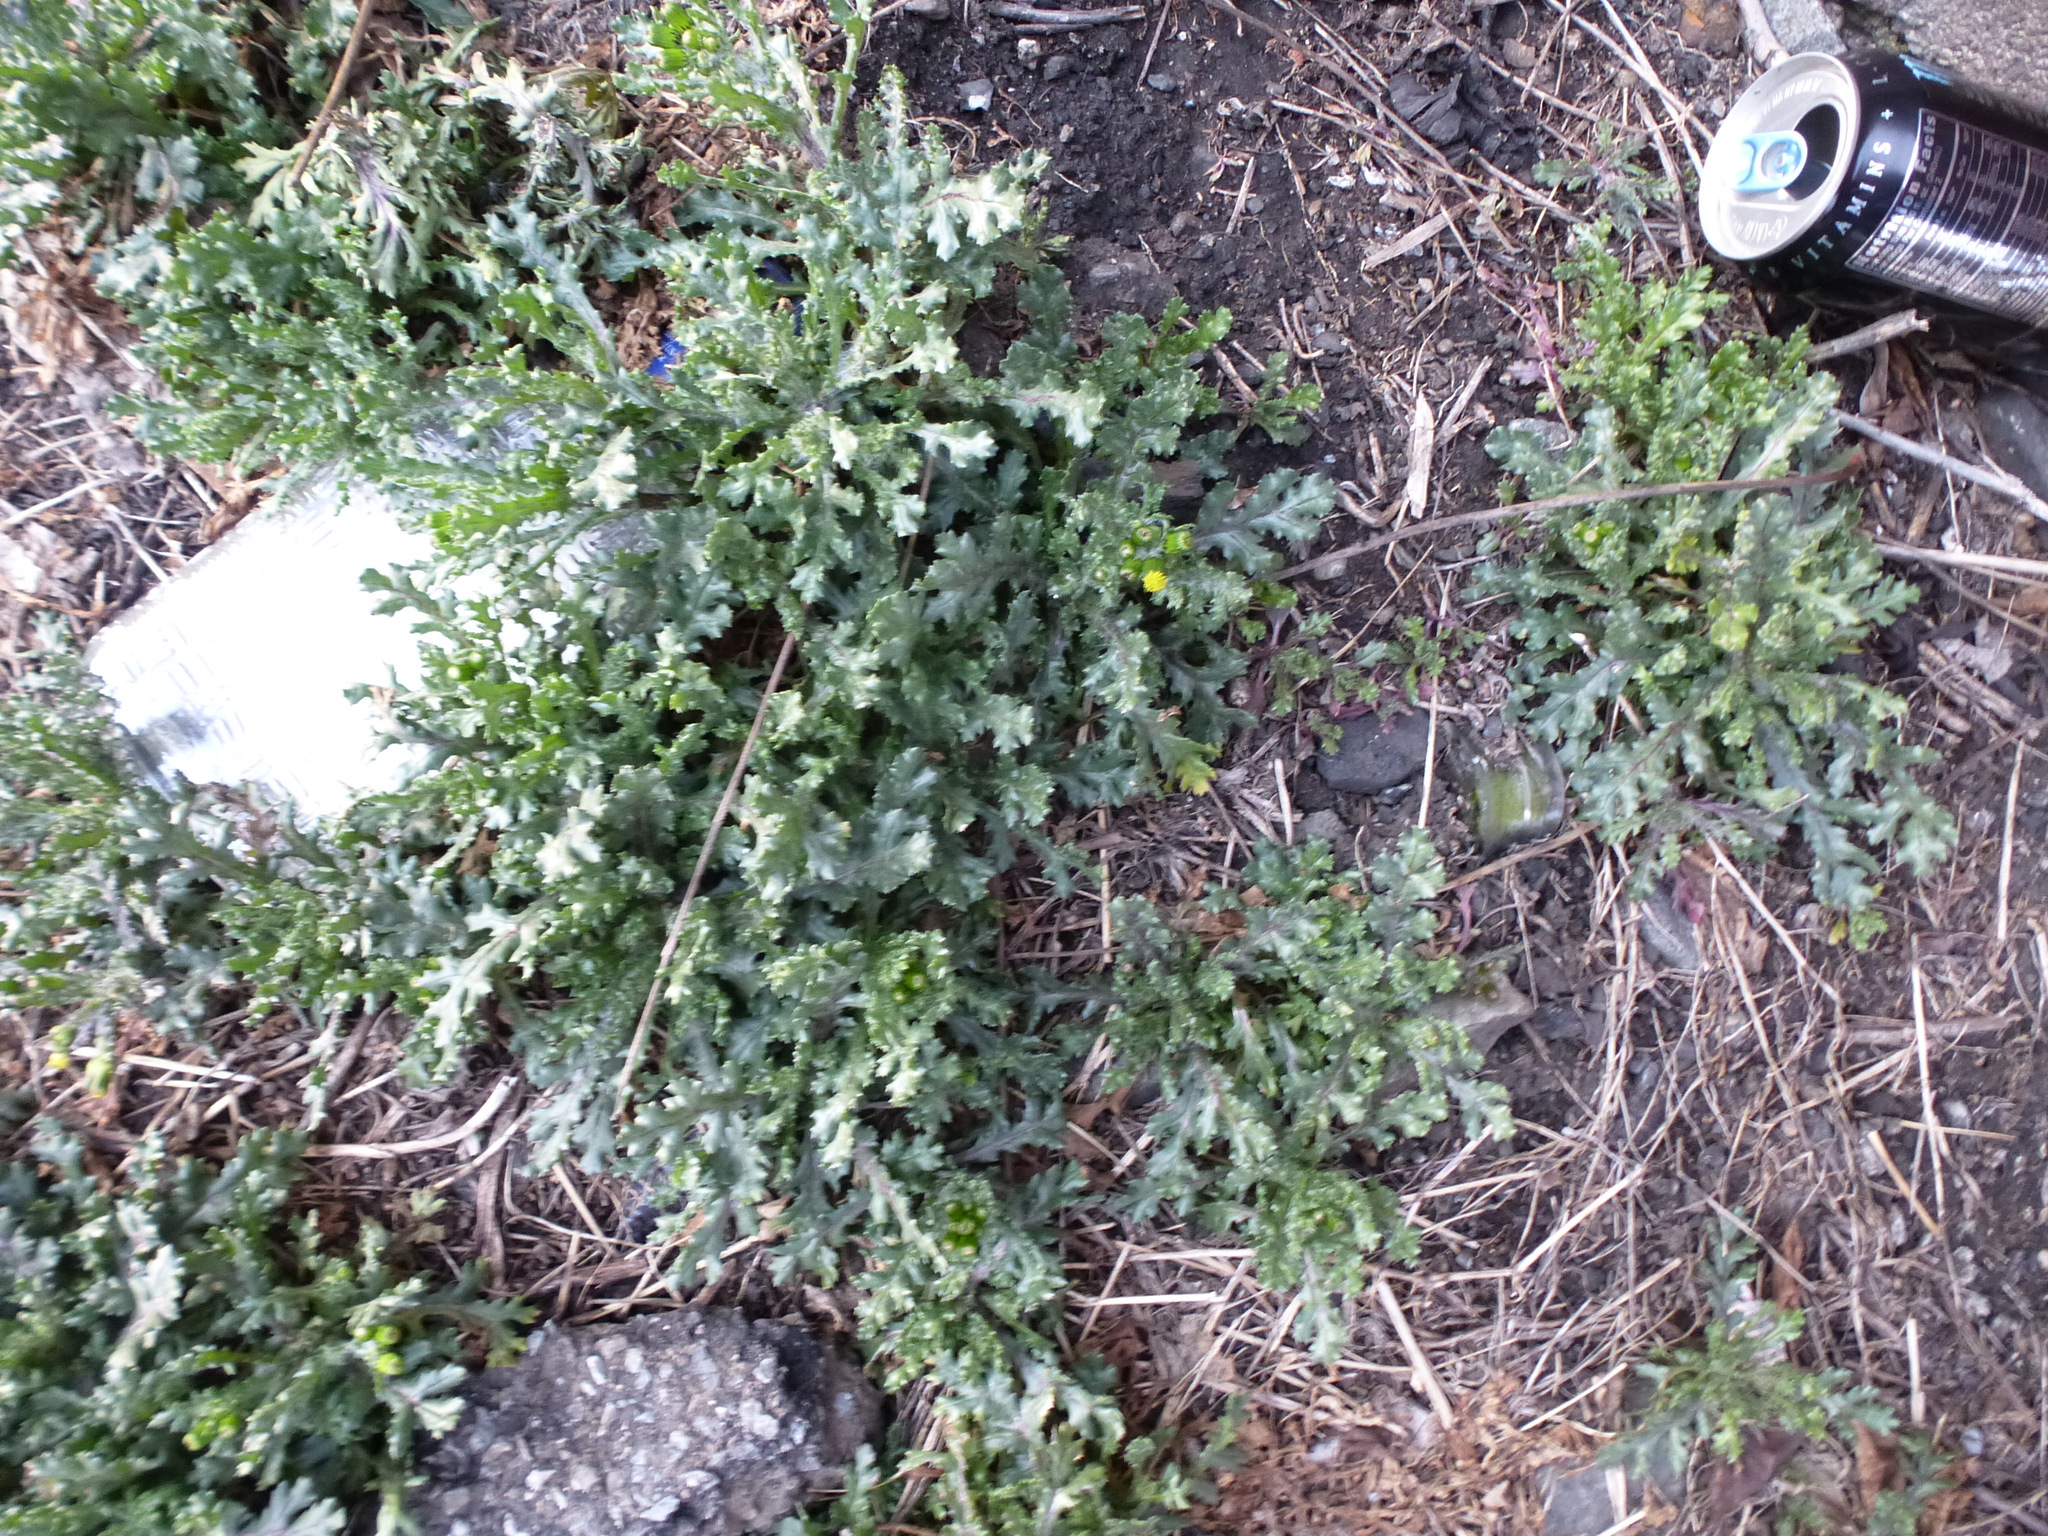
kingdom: Plantae
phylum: Tracheophyta
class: Magnoliopsida
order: Asterales
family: Asteraceae
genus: Senecio
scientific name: Senecio vulgaris
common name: Old-man-in-the-spring
